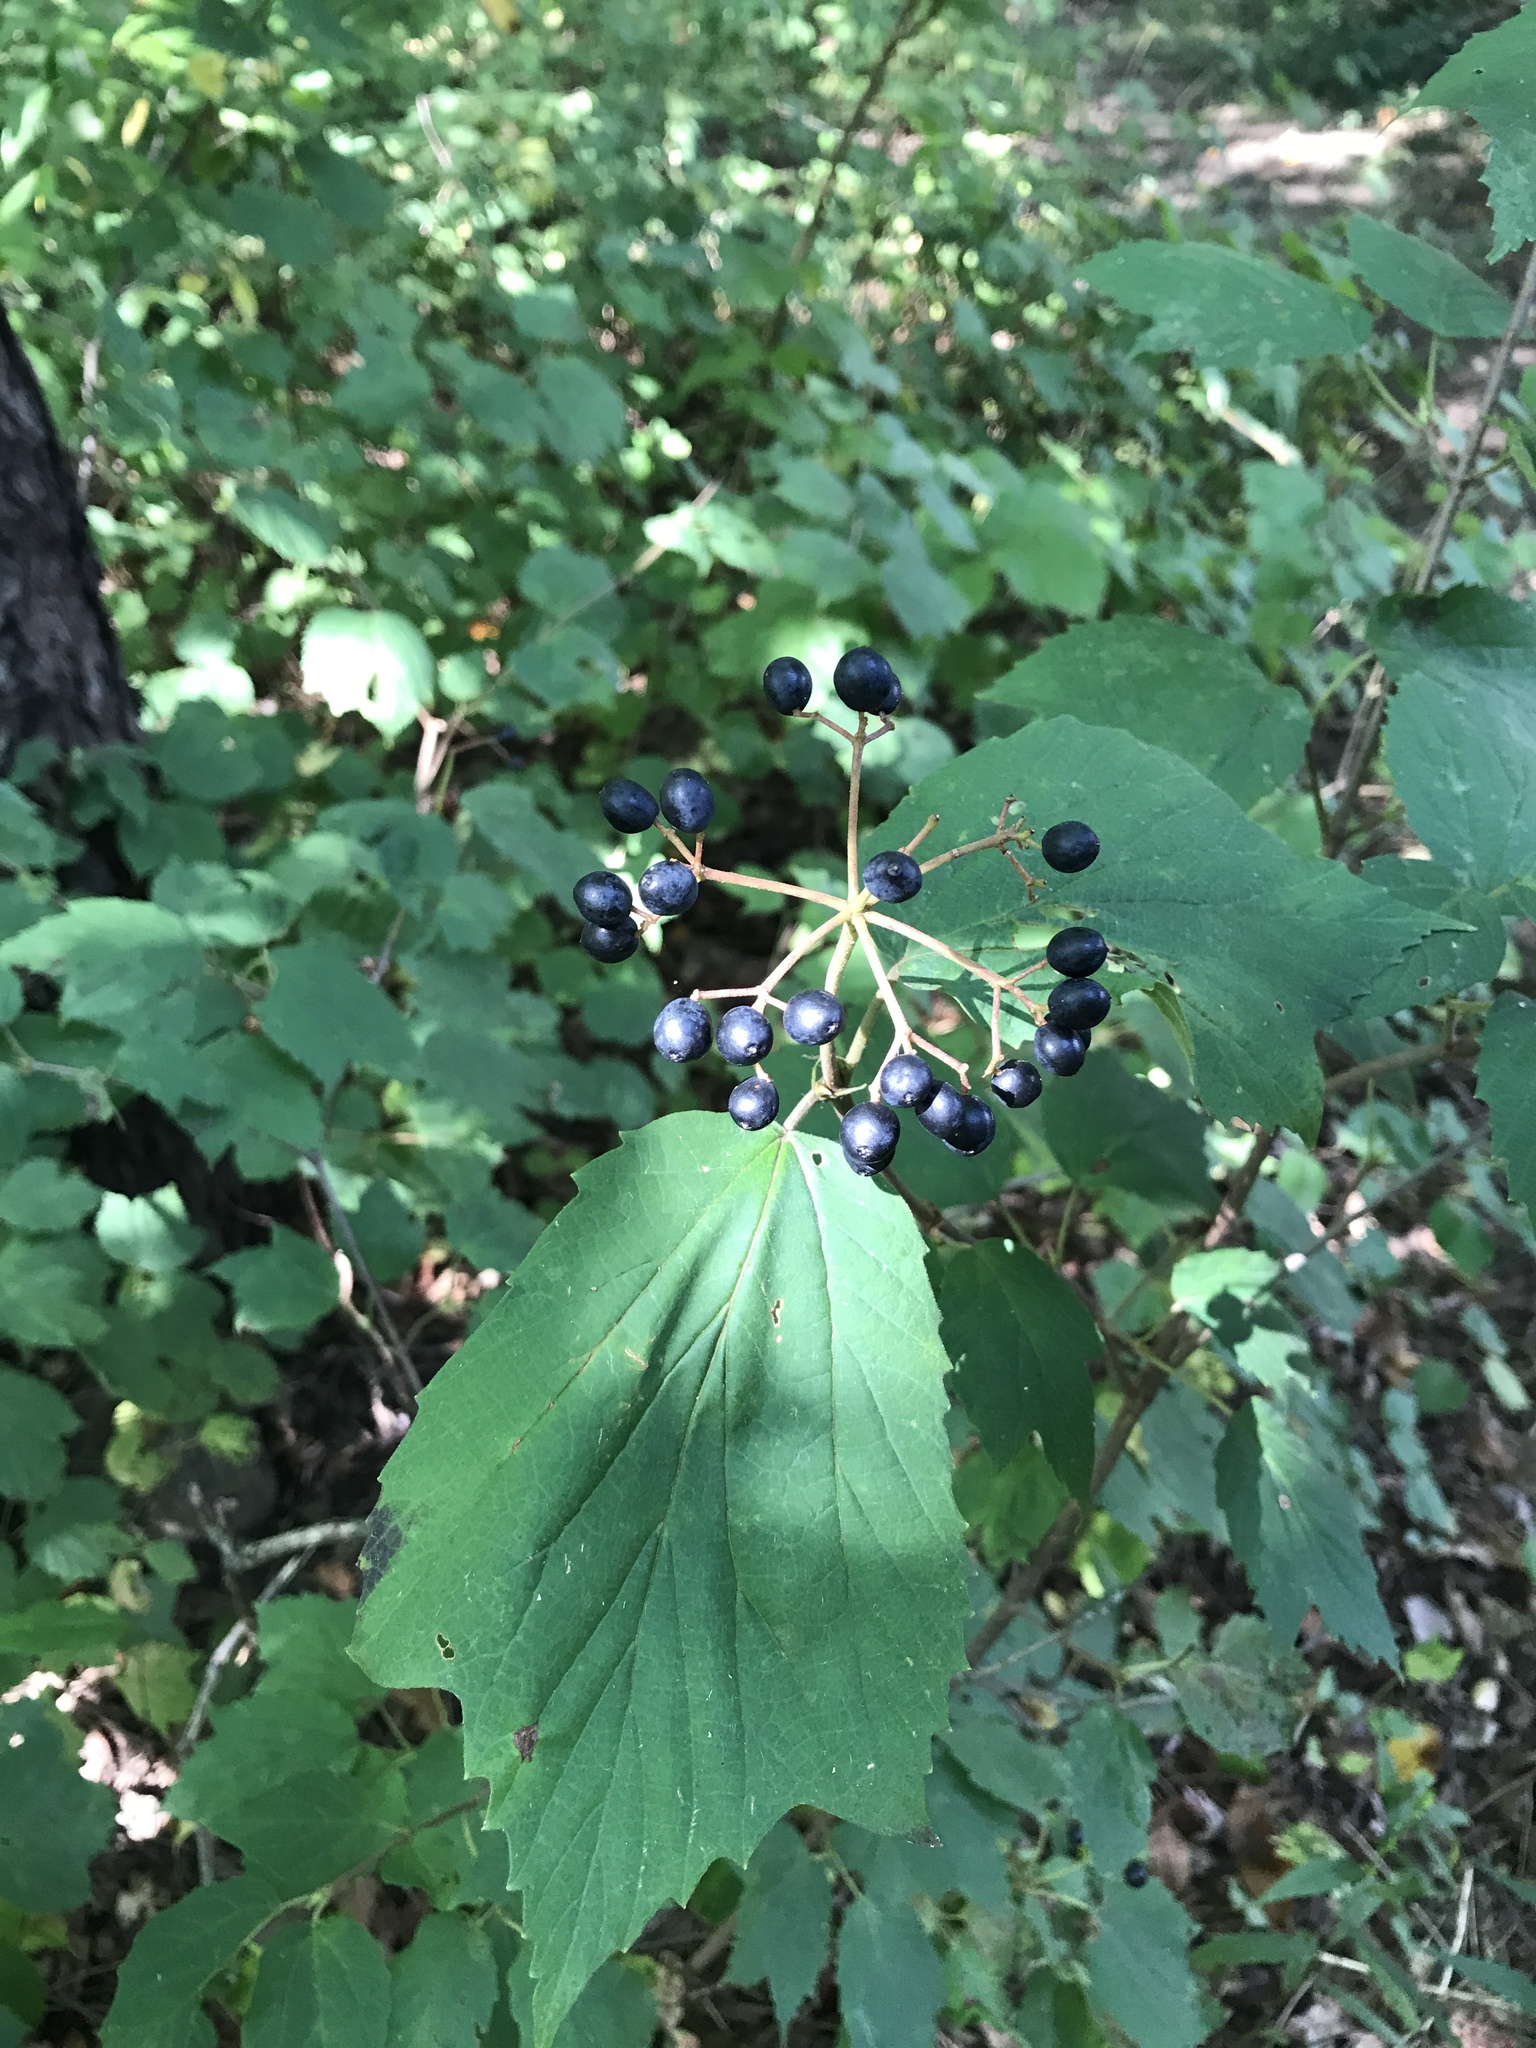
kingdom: Plantae
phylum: Tracheophyta
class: Magnoliopsida
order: Dipsacales
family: Viburnaceae
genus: Viburnum
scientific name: Viburnum acerifolium
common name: Dockmackie
